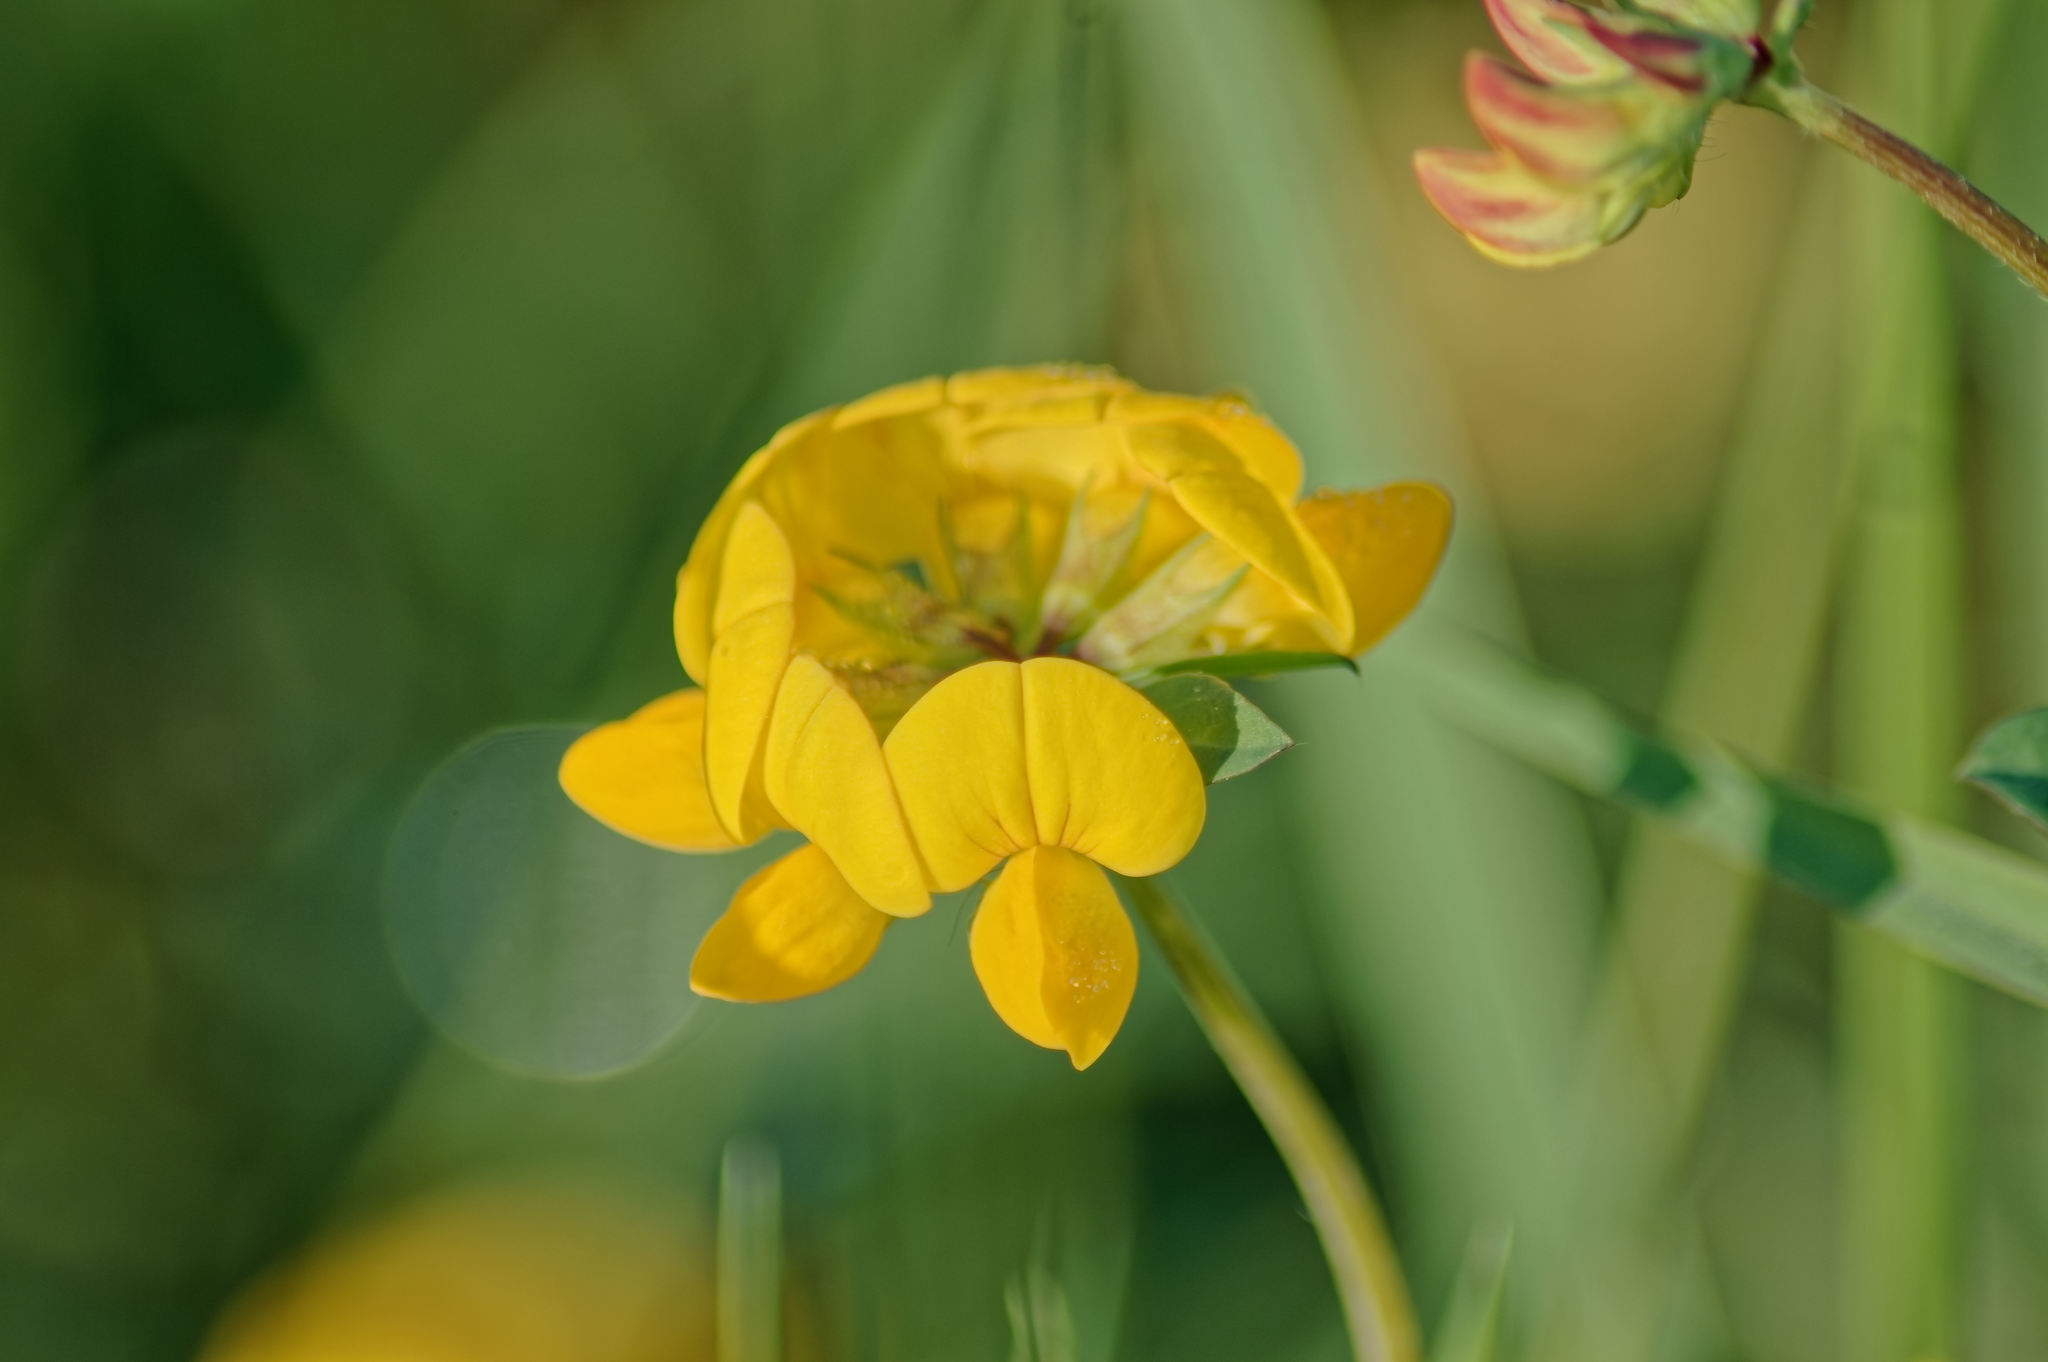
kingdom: Plantae
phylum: Tracheophyta
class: Magnoliopsida
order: Fabales
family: Fabaceae
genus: Lotus
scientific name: Lotus corniculatus
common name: Common bird's-foot-trefoil
